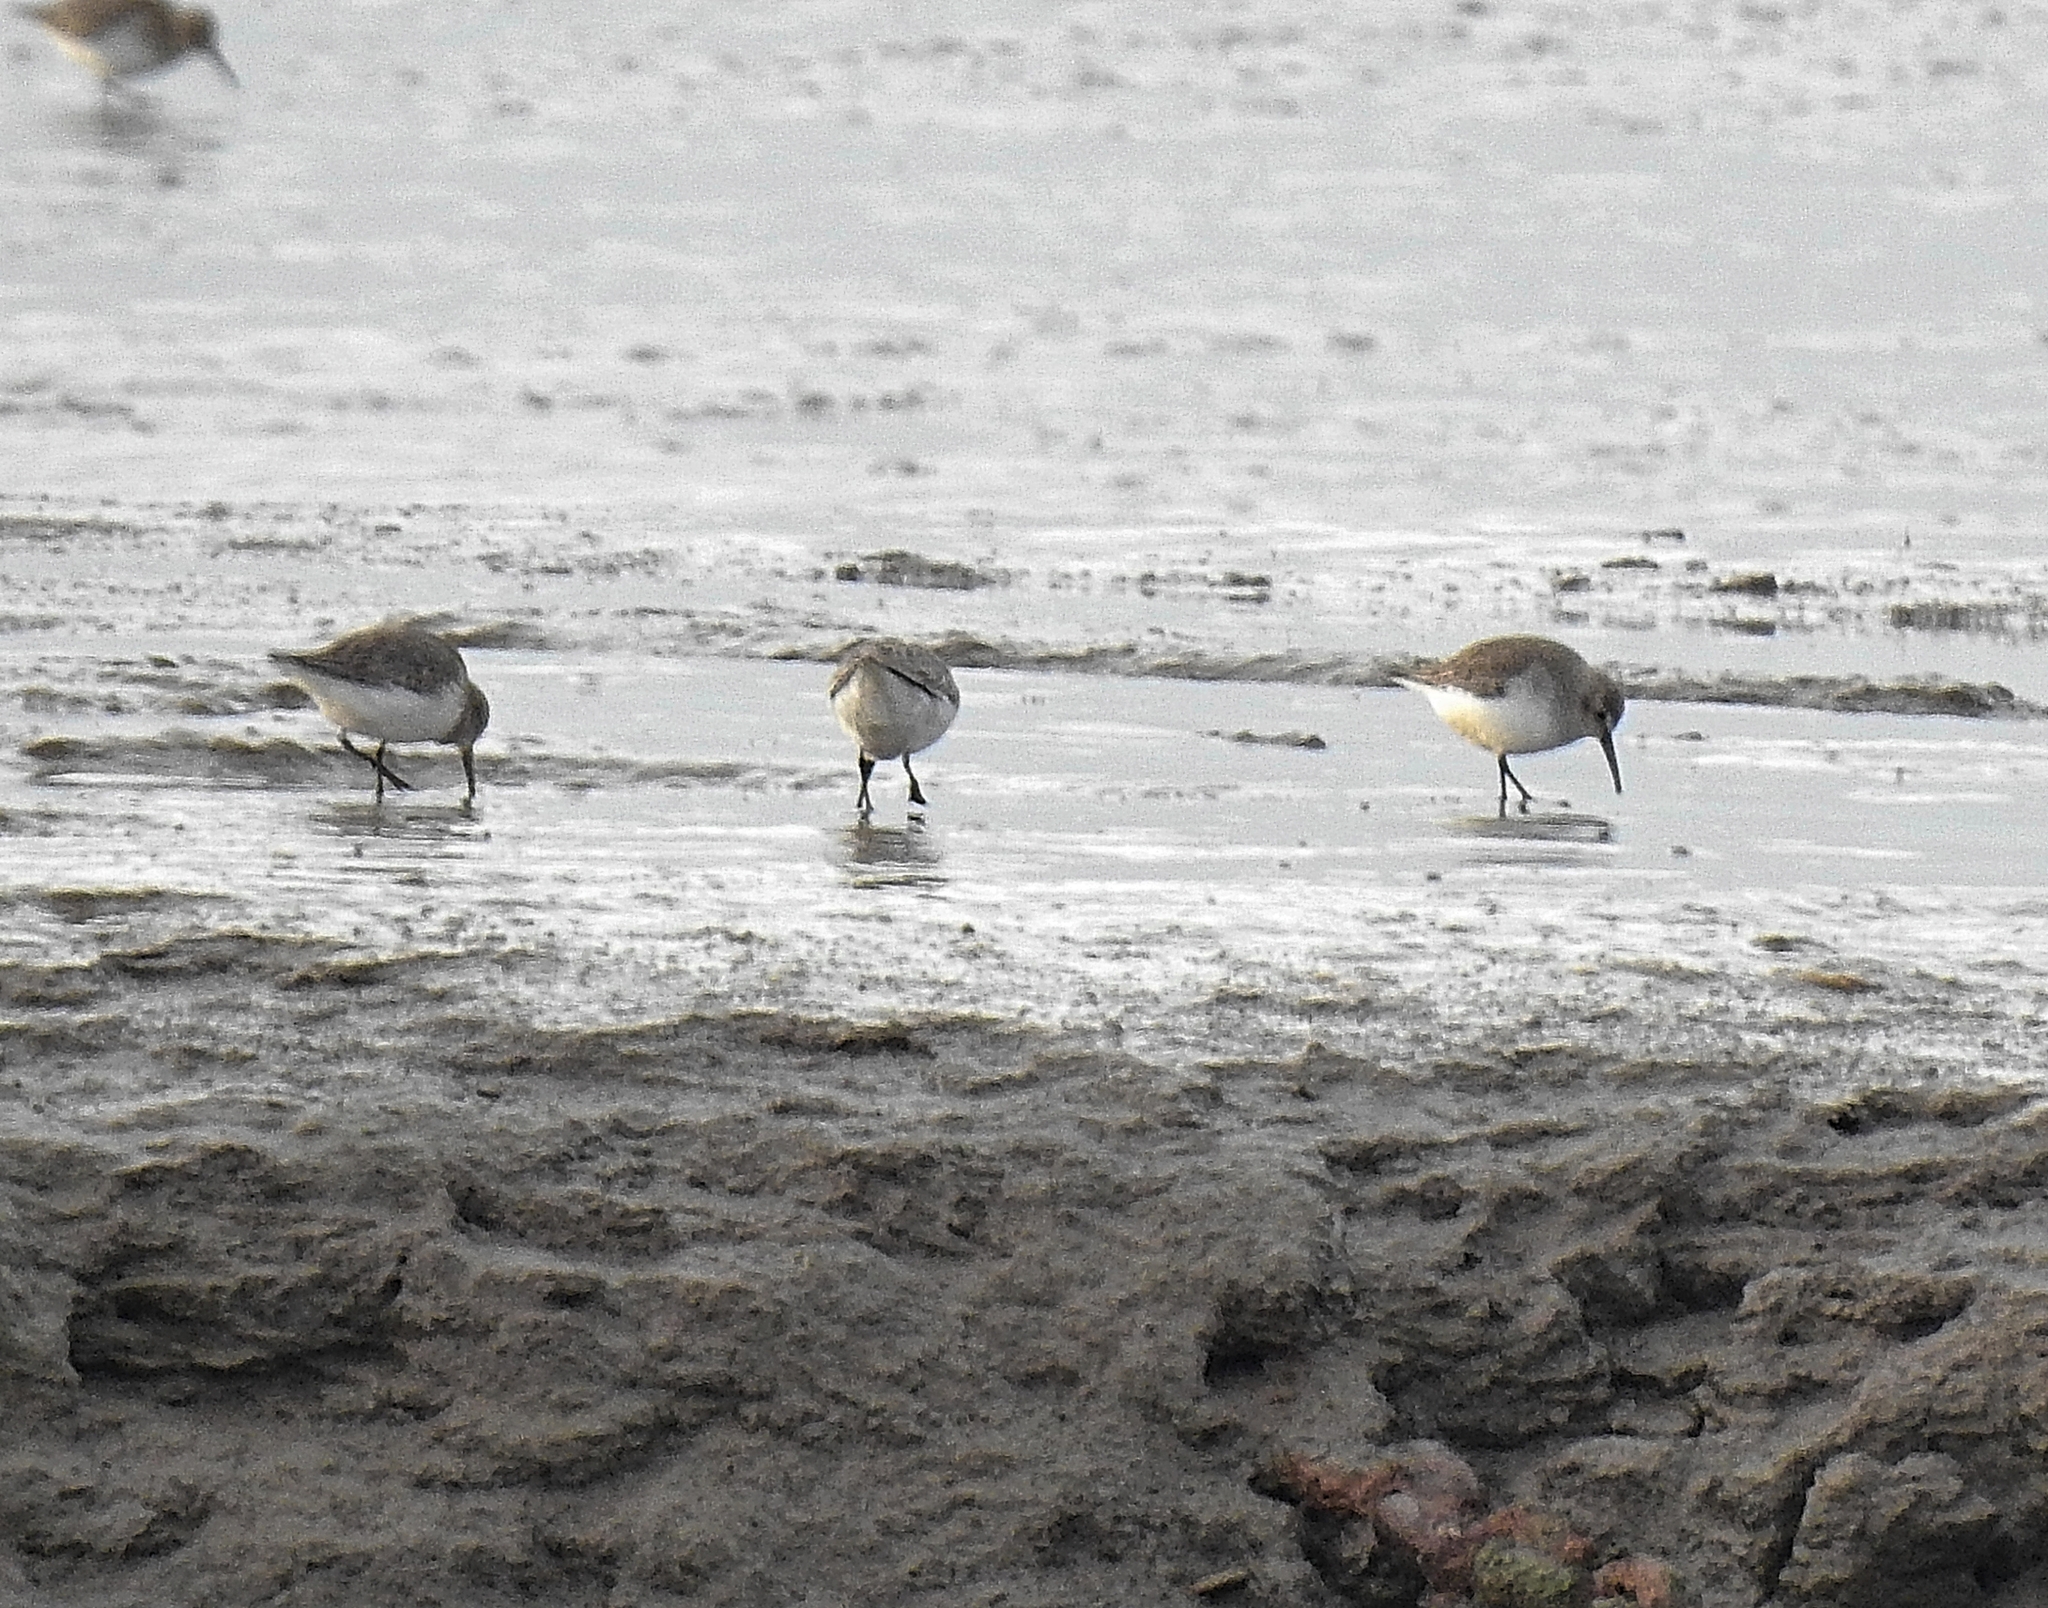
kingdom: Animalia
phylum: Chordata
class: Aves
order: Charadriiformes
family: Scolopacidae
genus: Calidris
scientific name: Calidris alpina
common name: Dunlin
